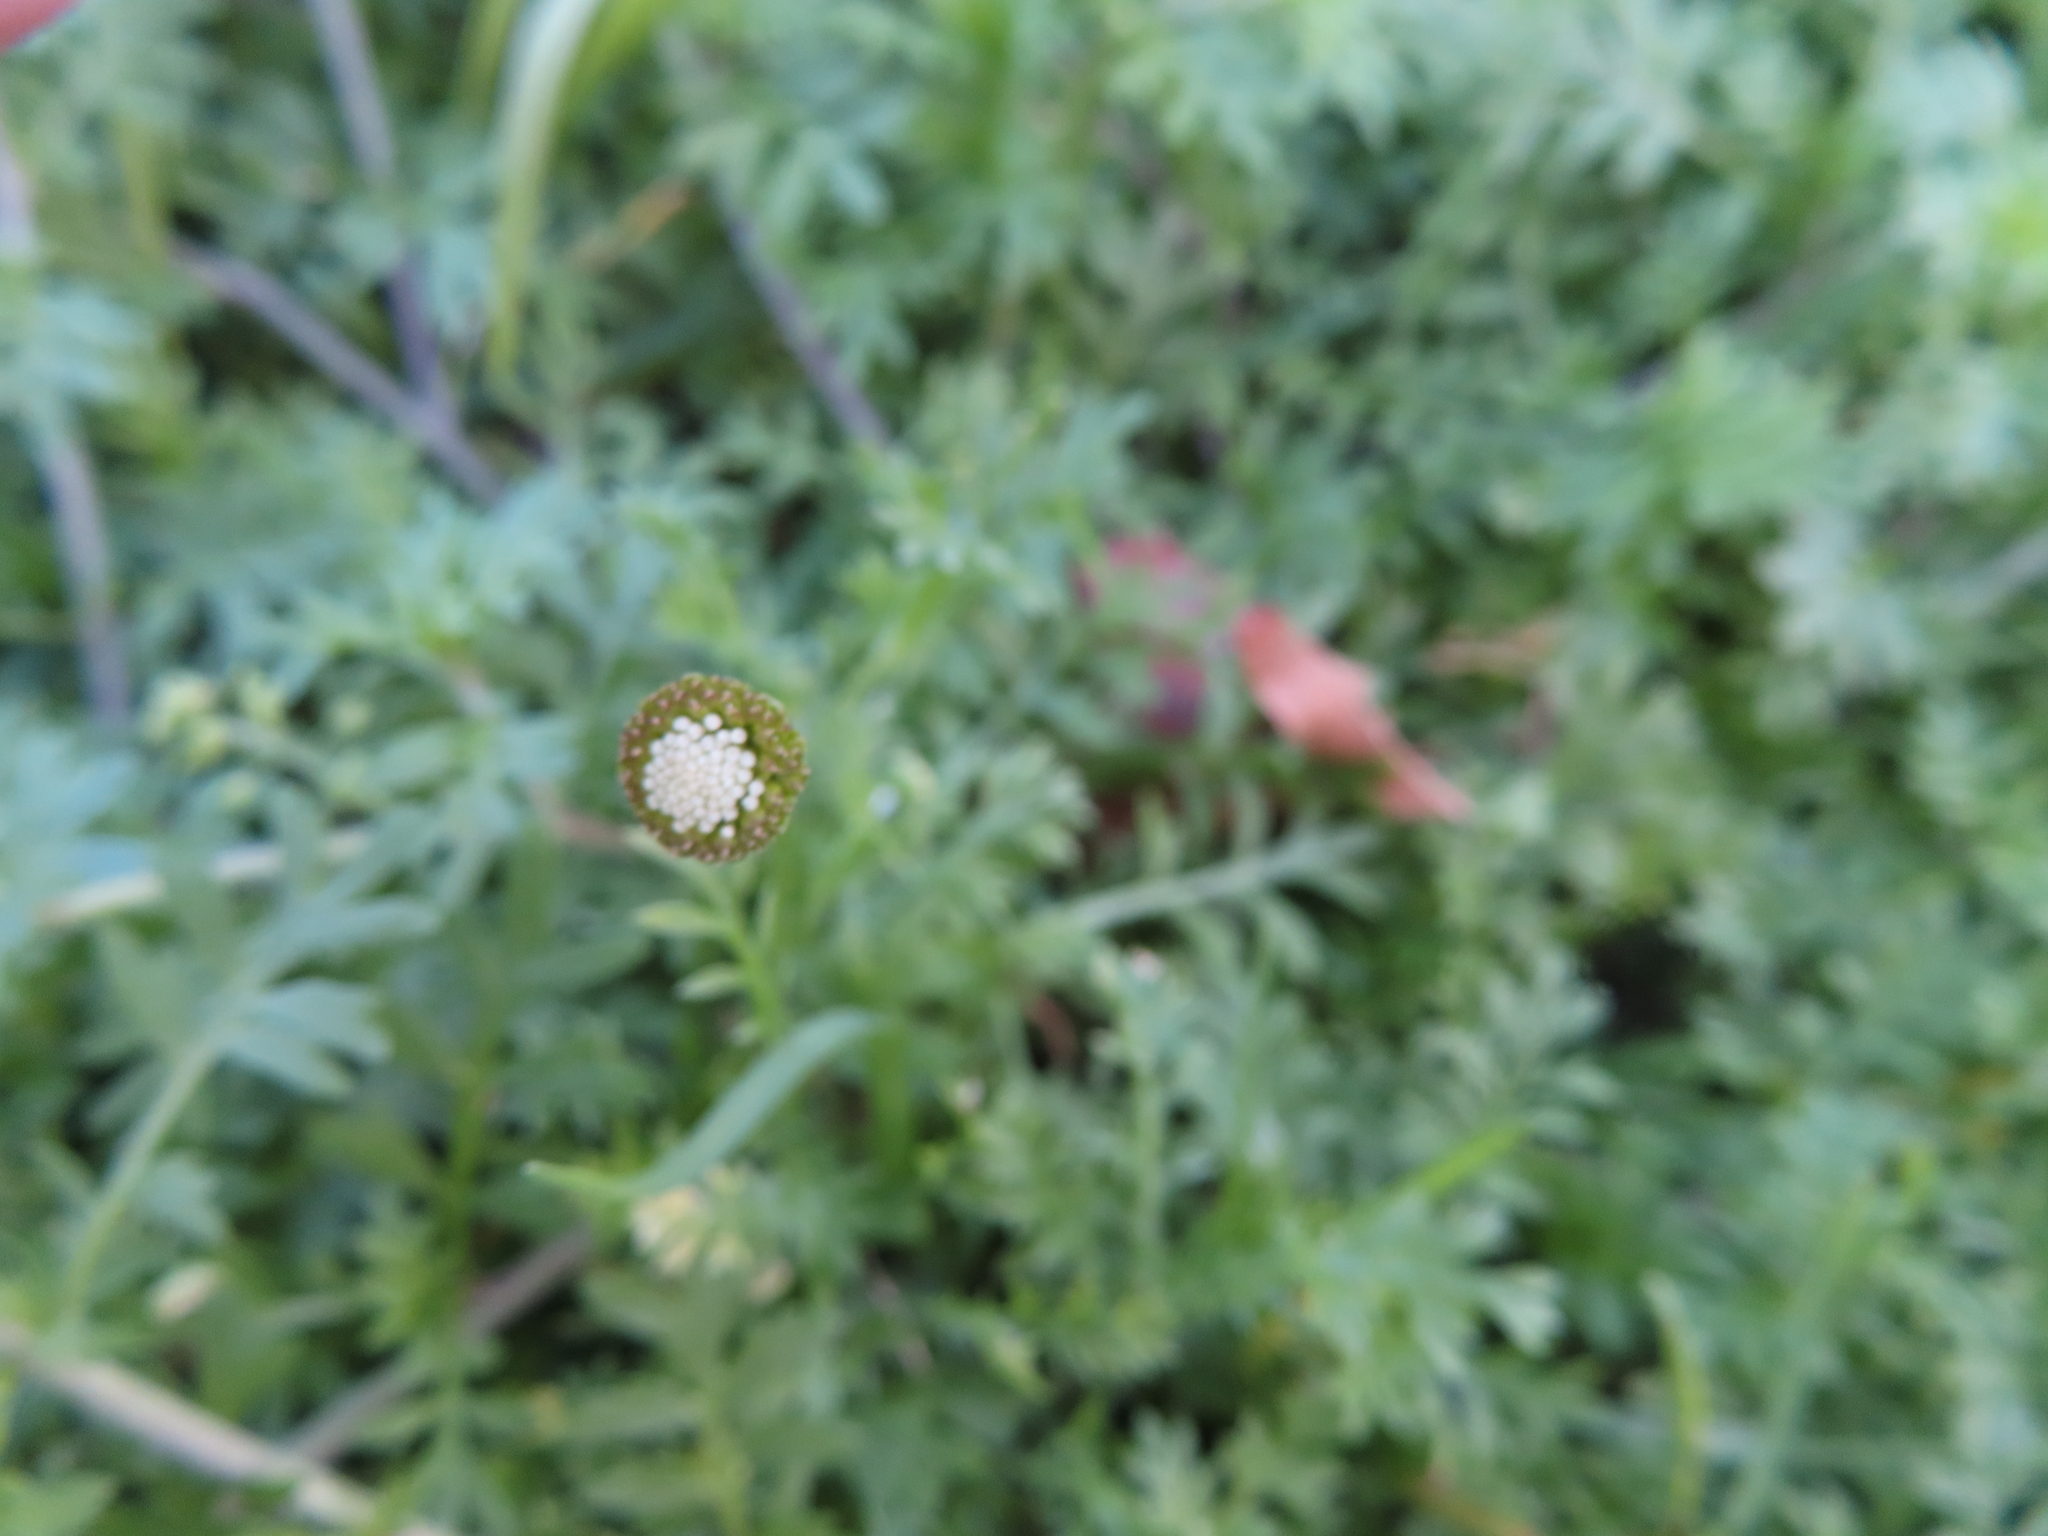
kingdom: Plantae
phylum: Tracheophyta
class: Magnoliopsida
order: Asterales
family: Asteraceae
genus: Cotula
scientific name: Cotula australis
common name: Australian waterbuttons
